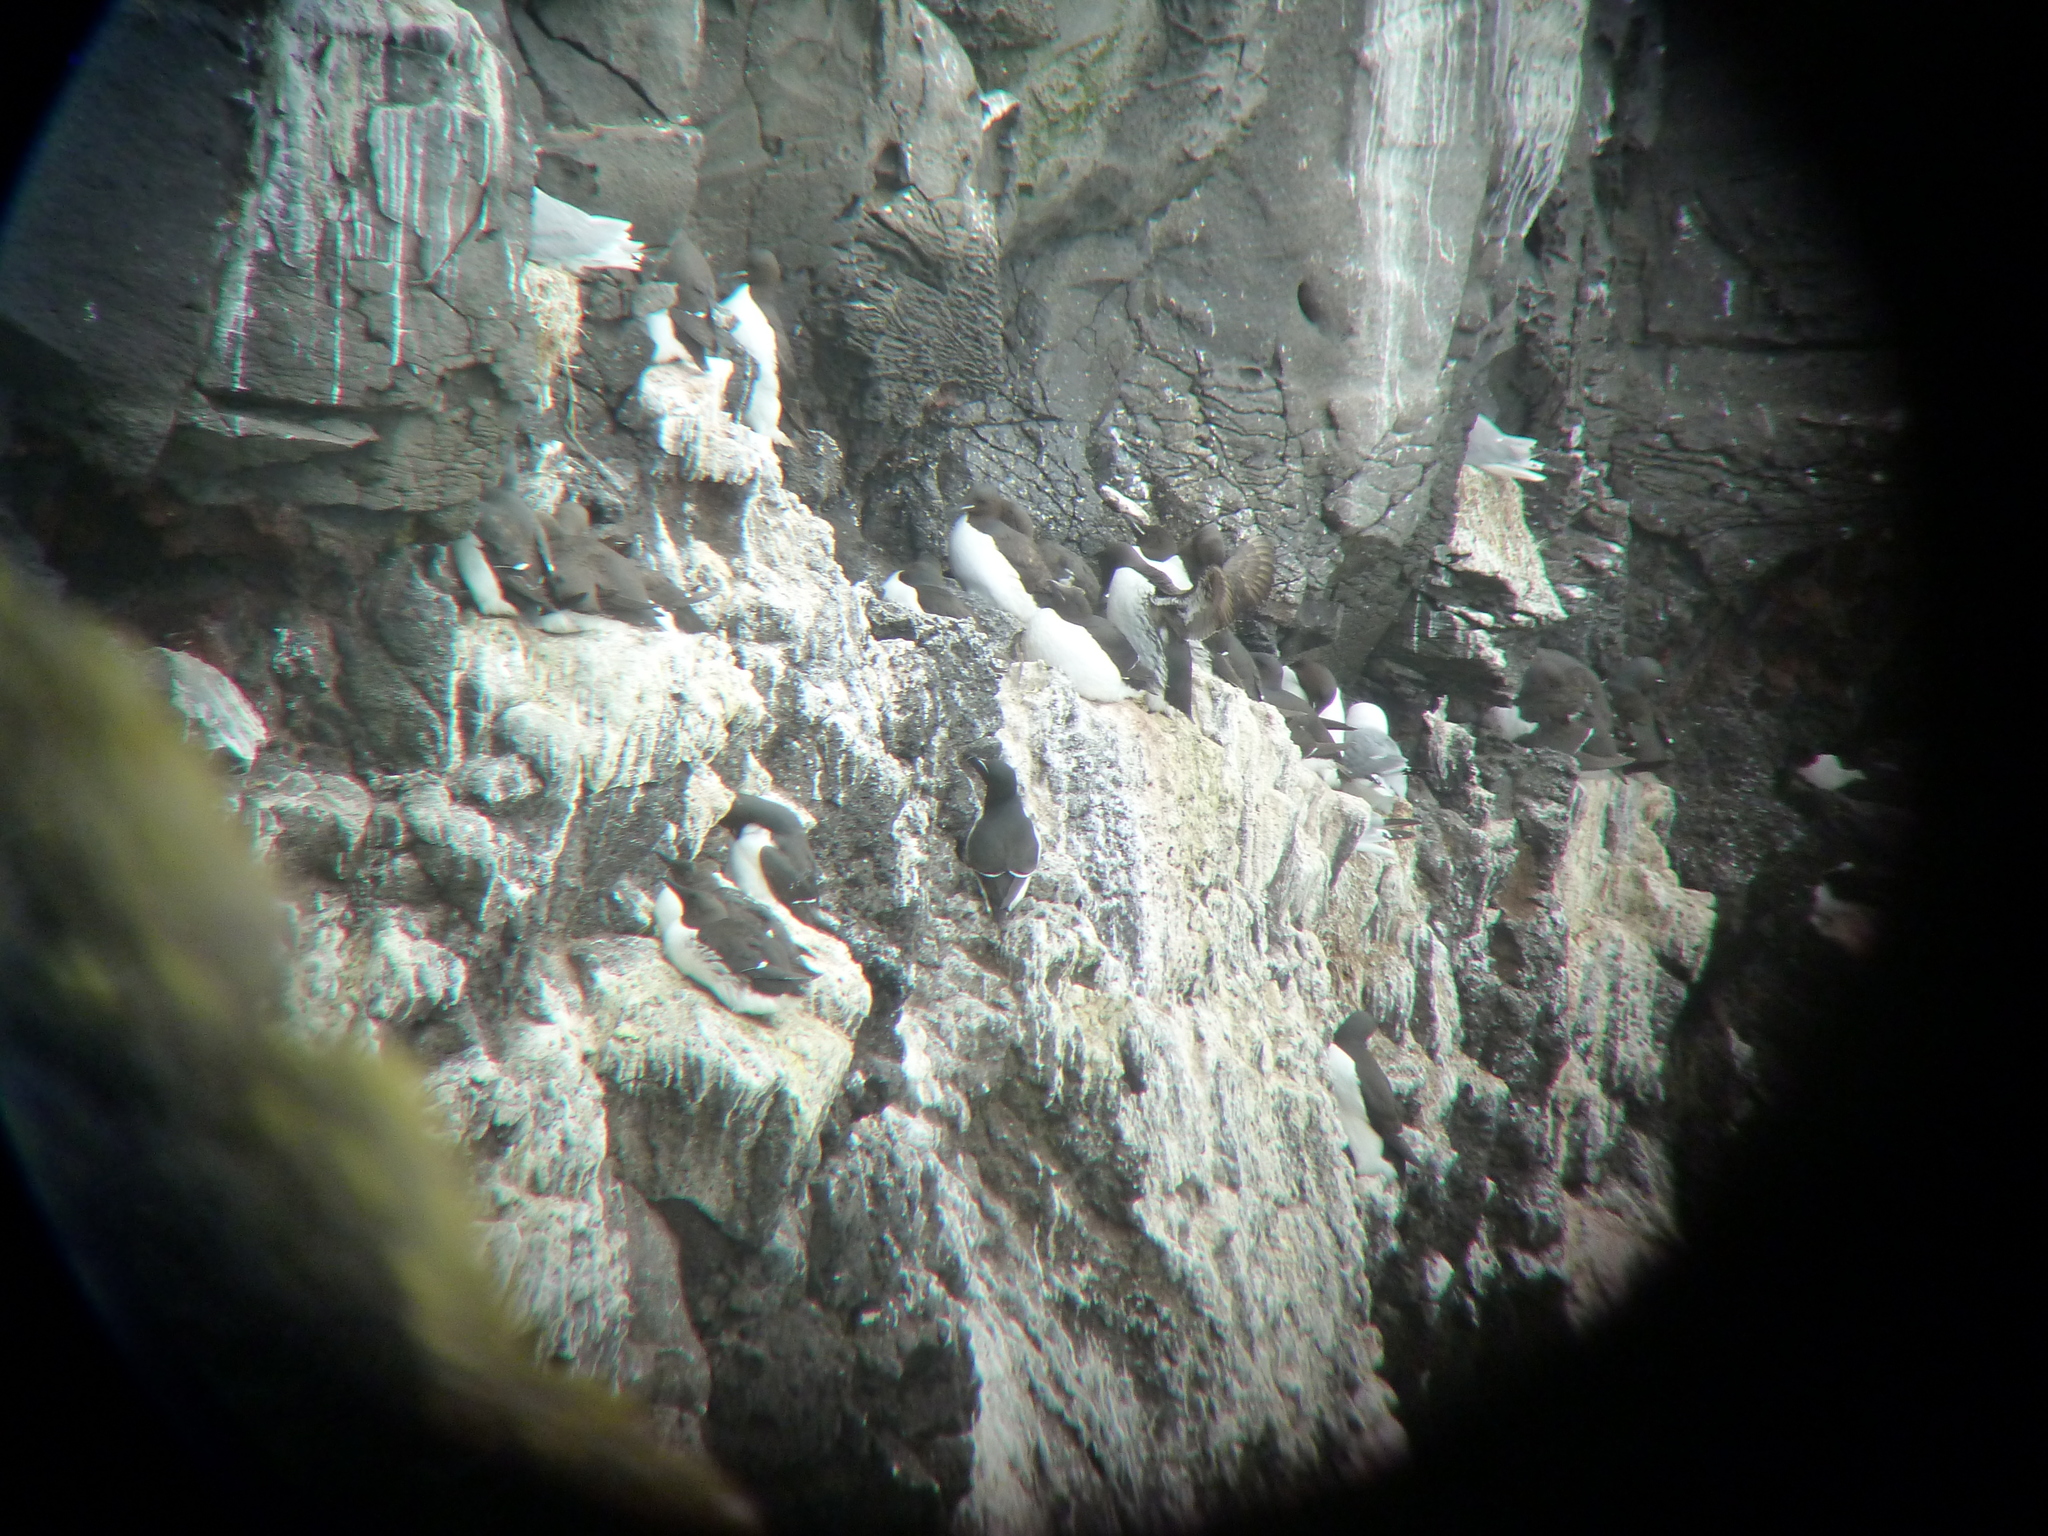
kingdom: Animalia
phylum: Chordata
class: Aves
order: Charadriiformes
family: Alcidae
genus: Uria
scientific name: Uria lomvia
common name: Thick-billed murre
